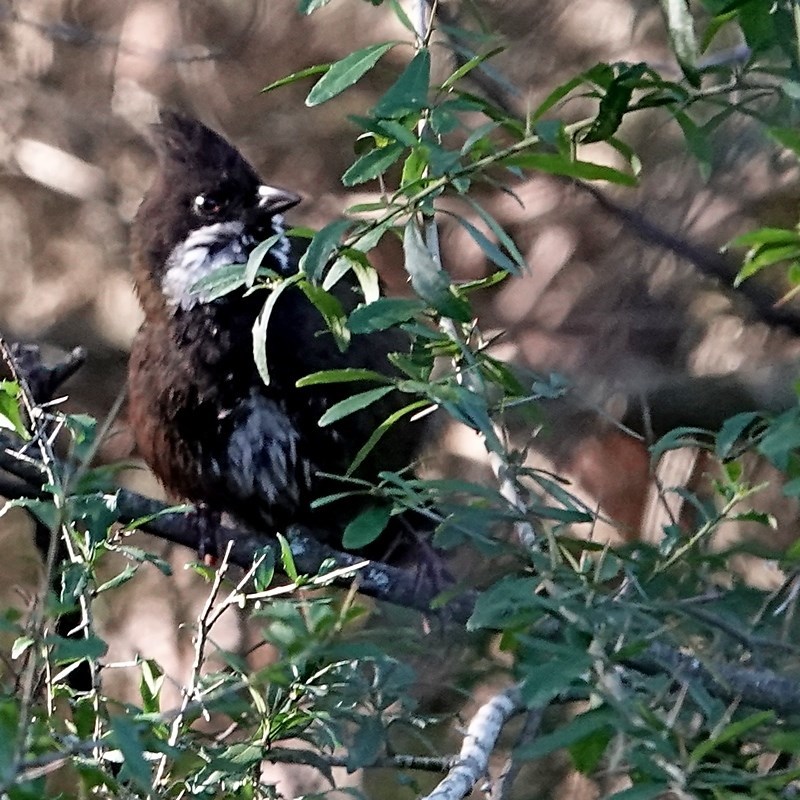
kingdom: Animalia
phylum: Chordata
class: Aves
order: Passeriformes
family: Psophodidae
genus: Psophodes
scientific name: Psophodes olivaceus
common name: Eastern whipbird
